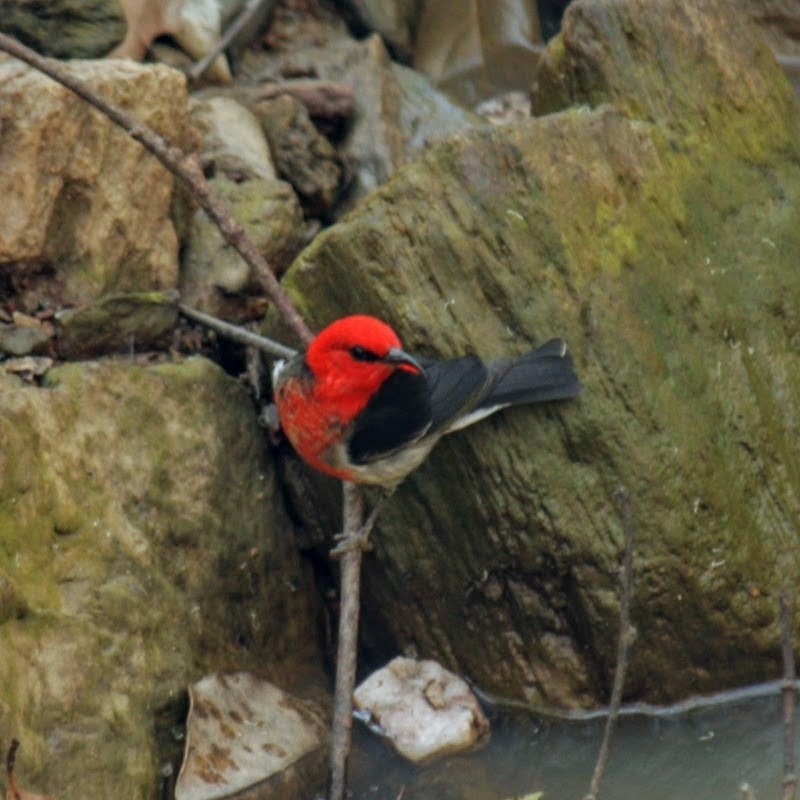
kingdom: Animalia
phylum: Chordata
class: Aves
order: Passeriformes
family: Meliphagidae
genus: Myzomela
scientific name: Myzomela sanguinolenta
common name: Scarlet myzomela
